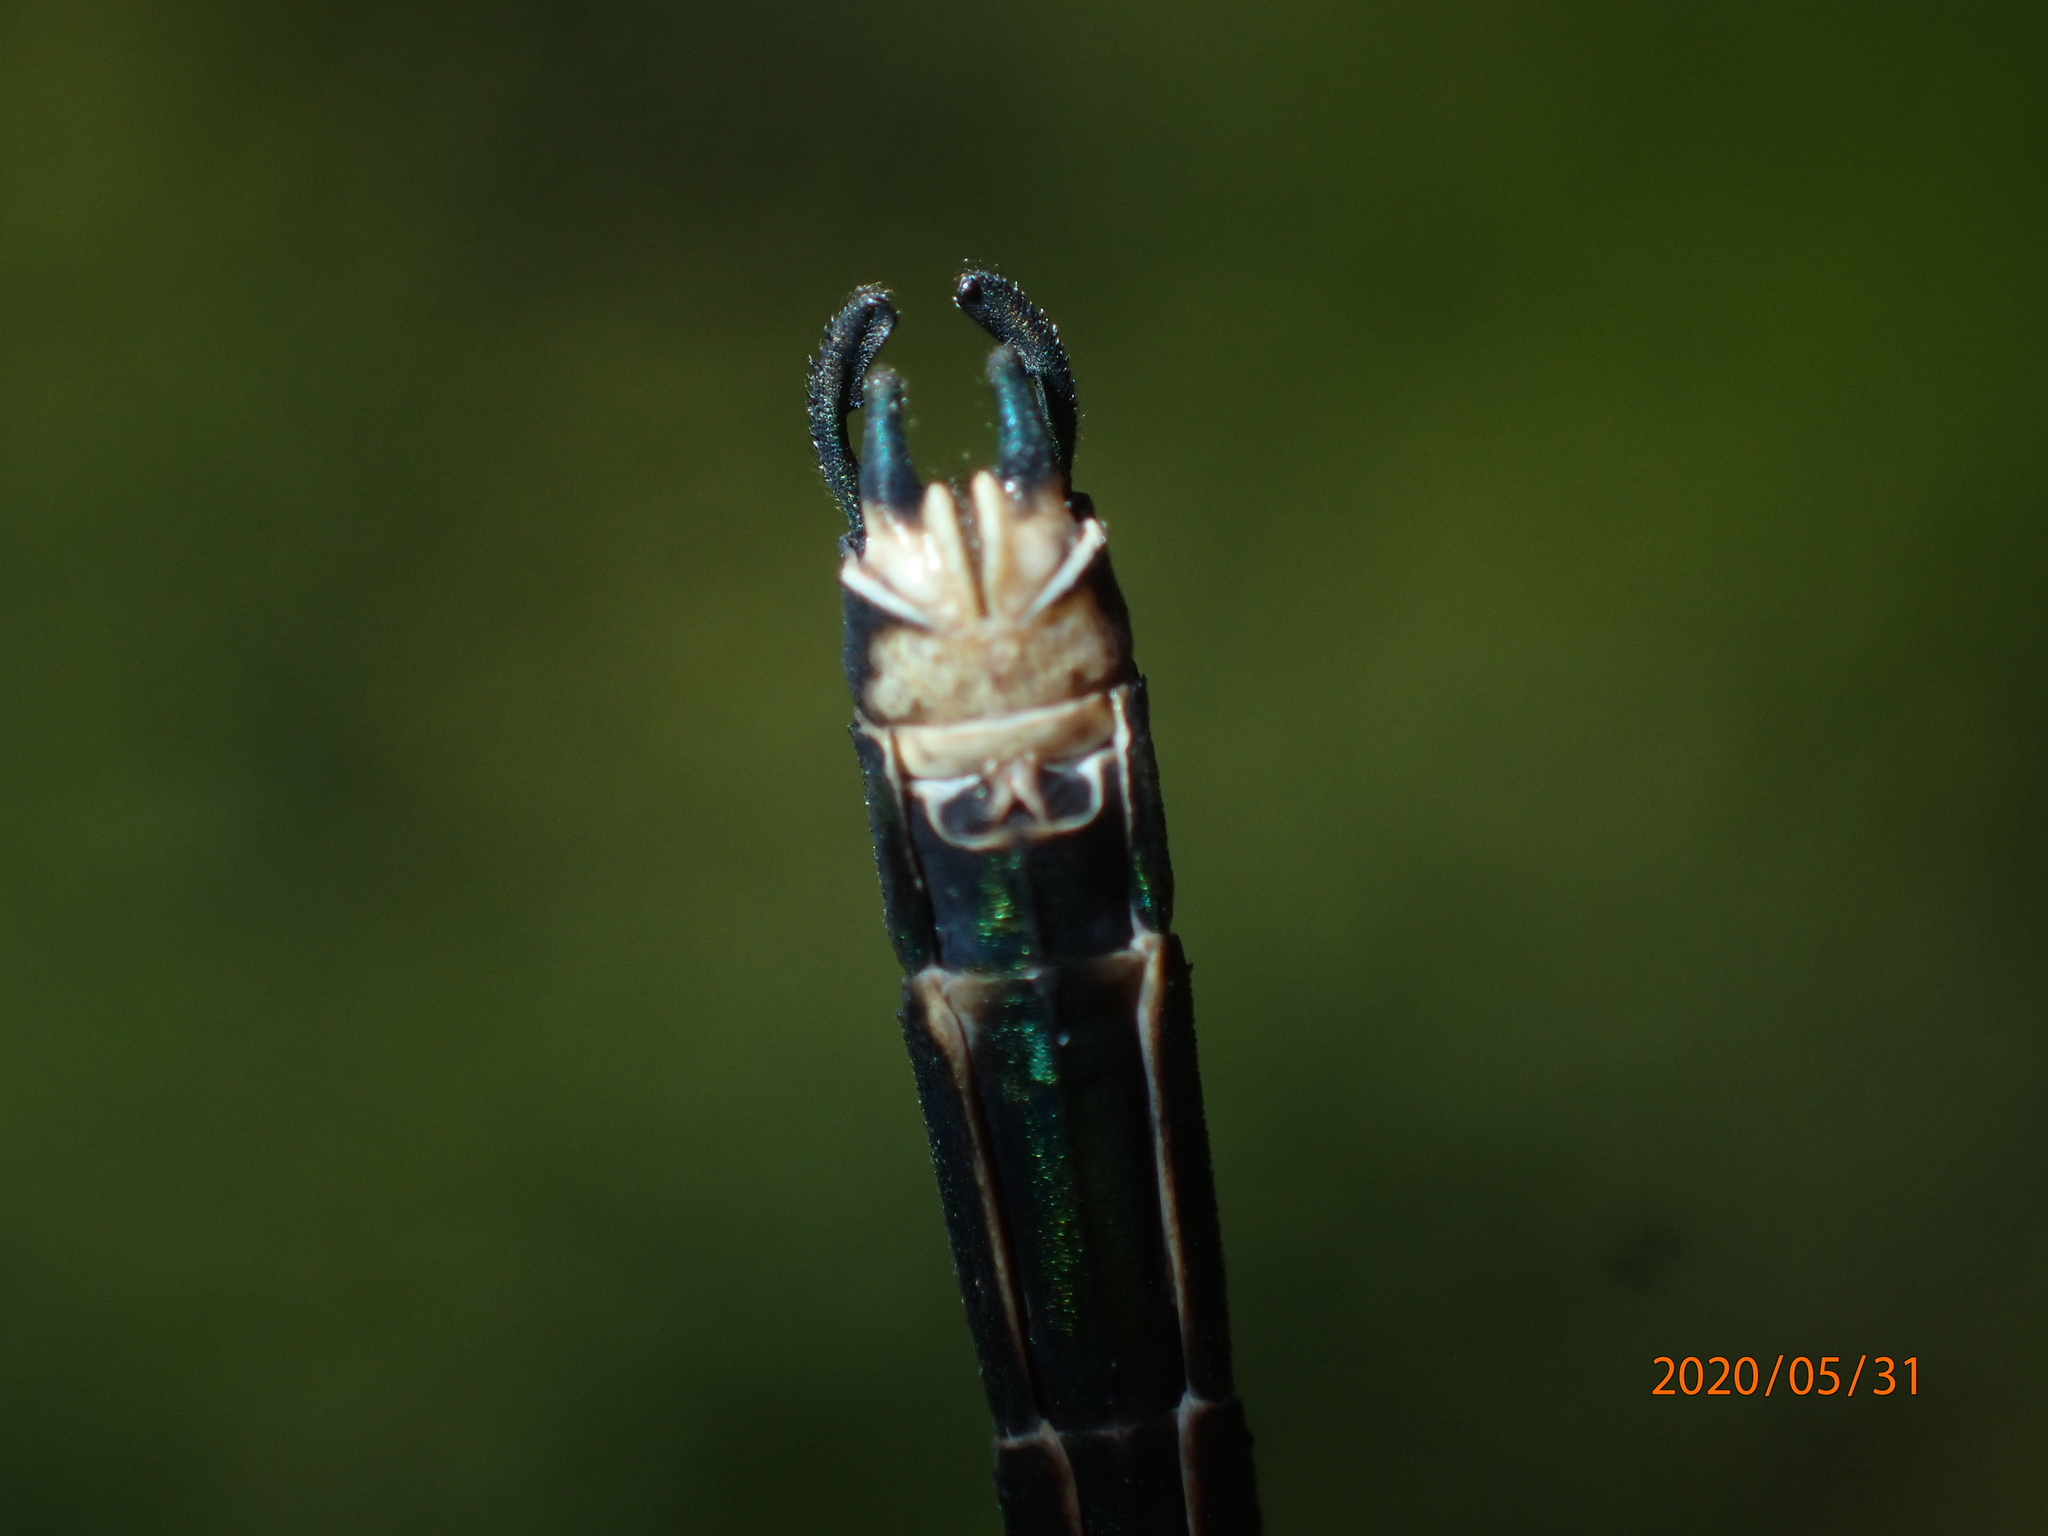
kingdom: Animalia
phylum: Arthropoda
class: Insecta
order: Odonata
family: Calopterygidae
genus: Calopteryx
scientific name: Calopteryx aequabilis
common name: River jewelwing
